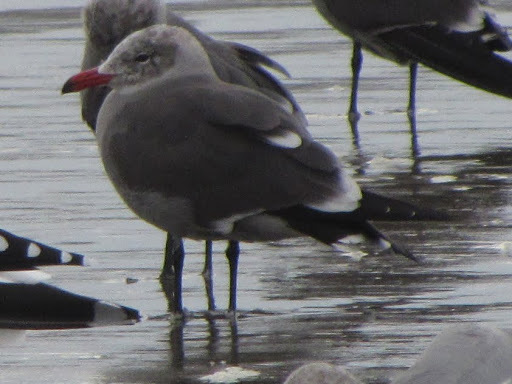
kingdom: Animalia
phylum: Chordata
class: Aves
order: Charadriiformes
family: Laridae
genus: Larus
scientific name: Larus heermanni
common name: Heermann's gull
